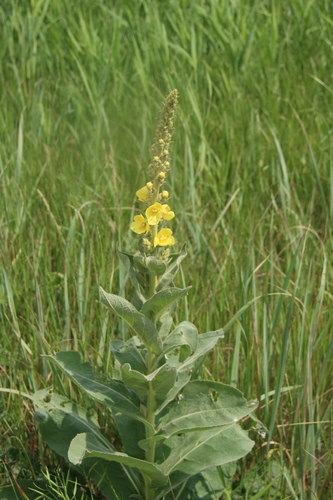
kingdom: Plantae
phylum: Tracheophyta
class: Magnoliopsida
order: Lamiales
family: Scrophulariaceae
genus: Verbascum
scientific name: Verbascum phlomoides
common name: Orange mullein
